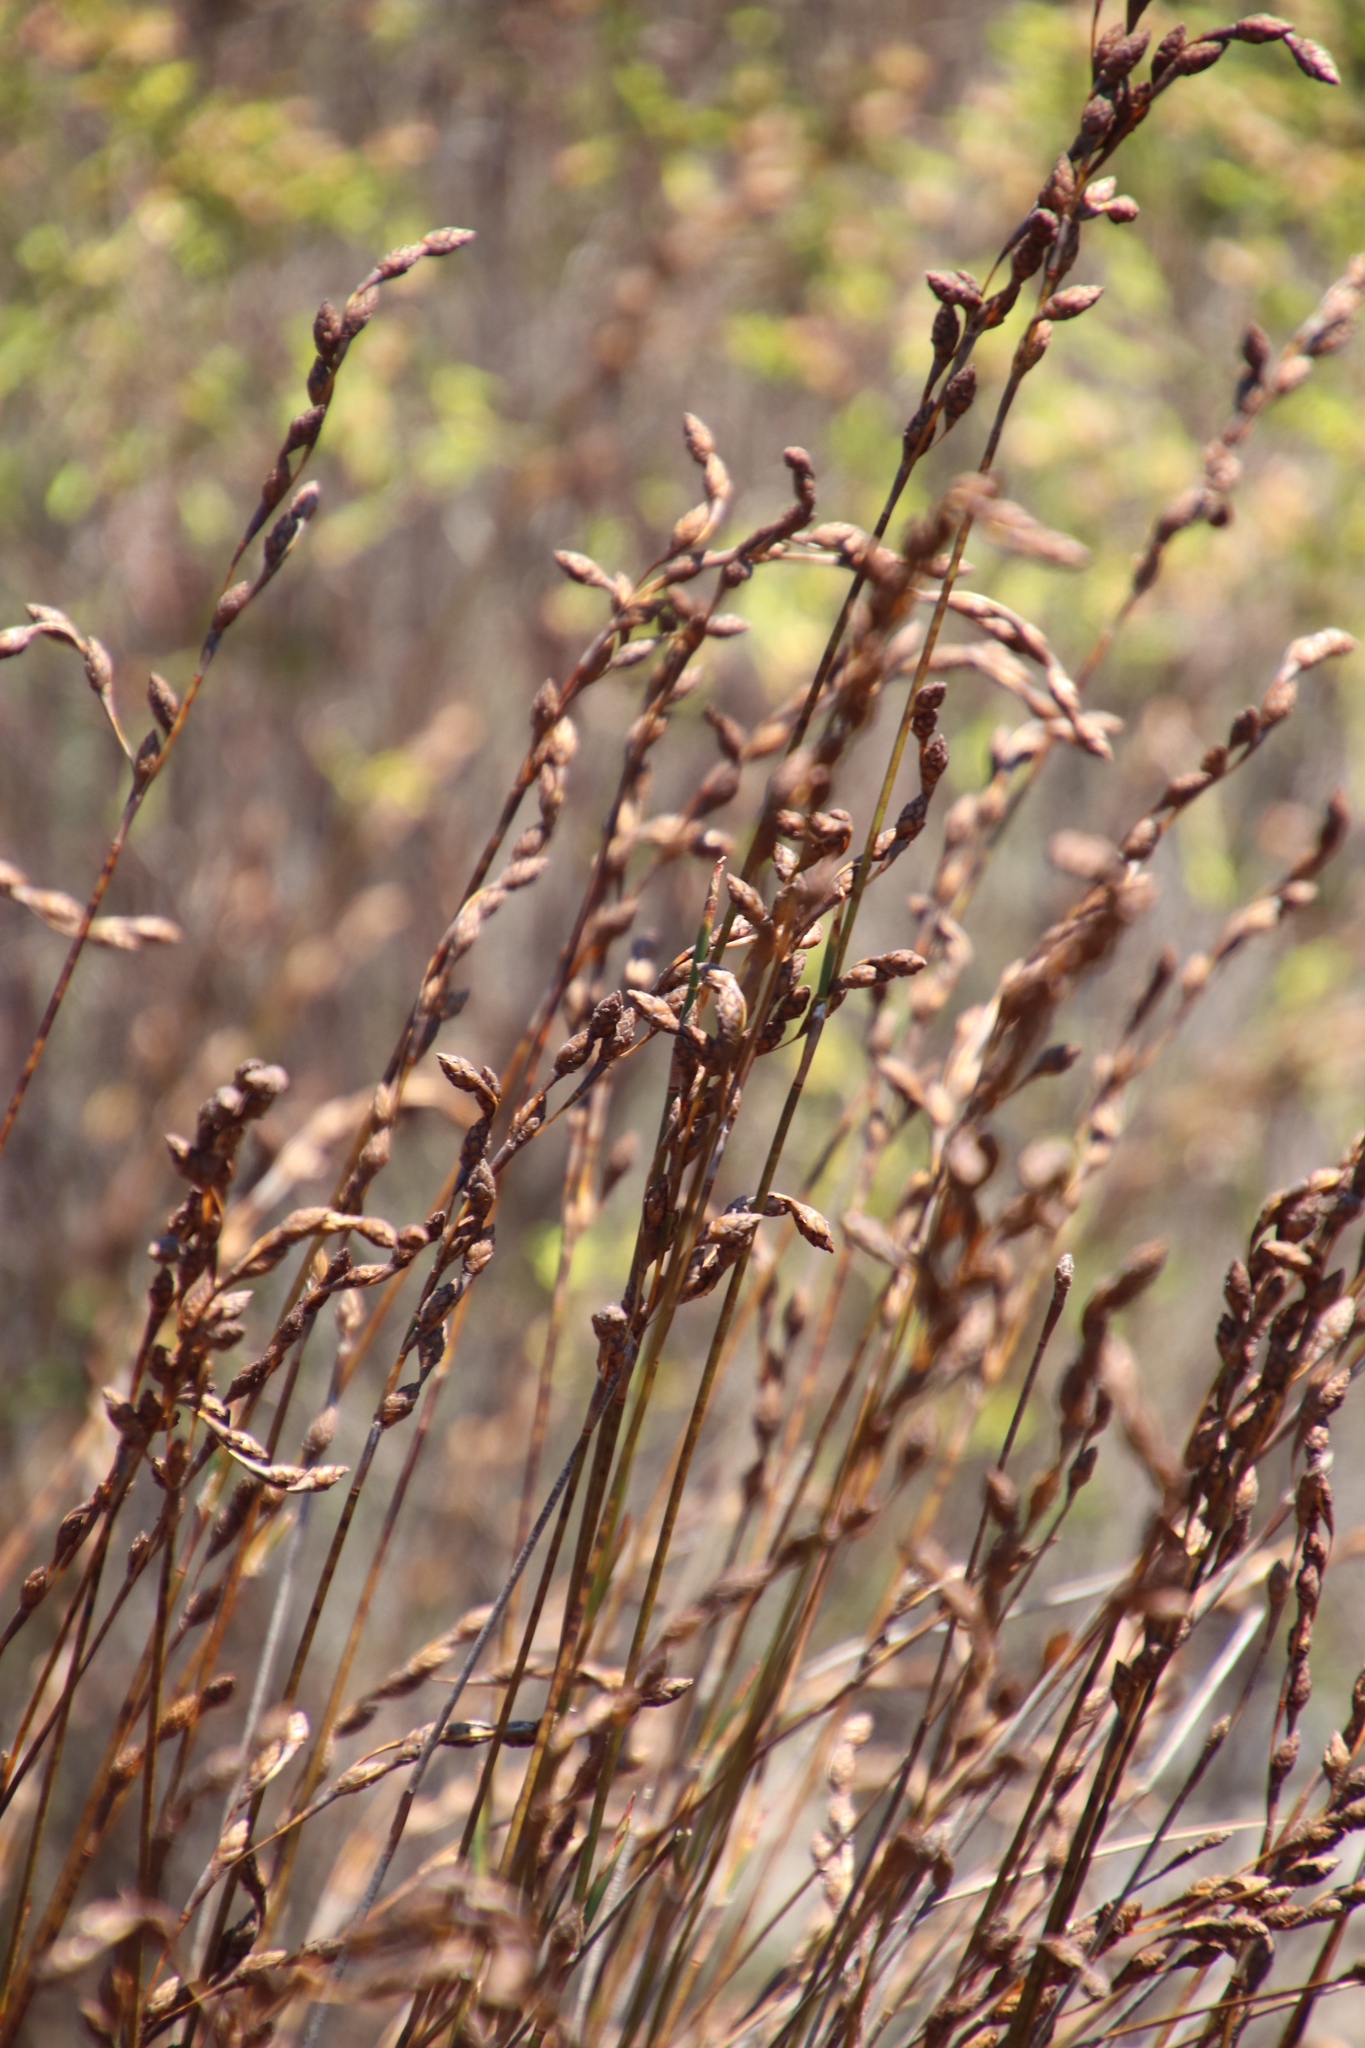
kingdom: Plantae
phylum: Tracheophyta
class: Liliopsida
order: Poales
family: Restionaceae
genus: Restio
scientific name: Restio bifurcus
